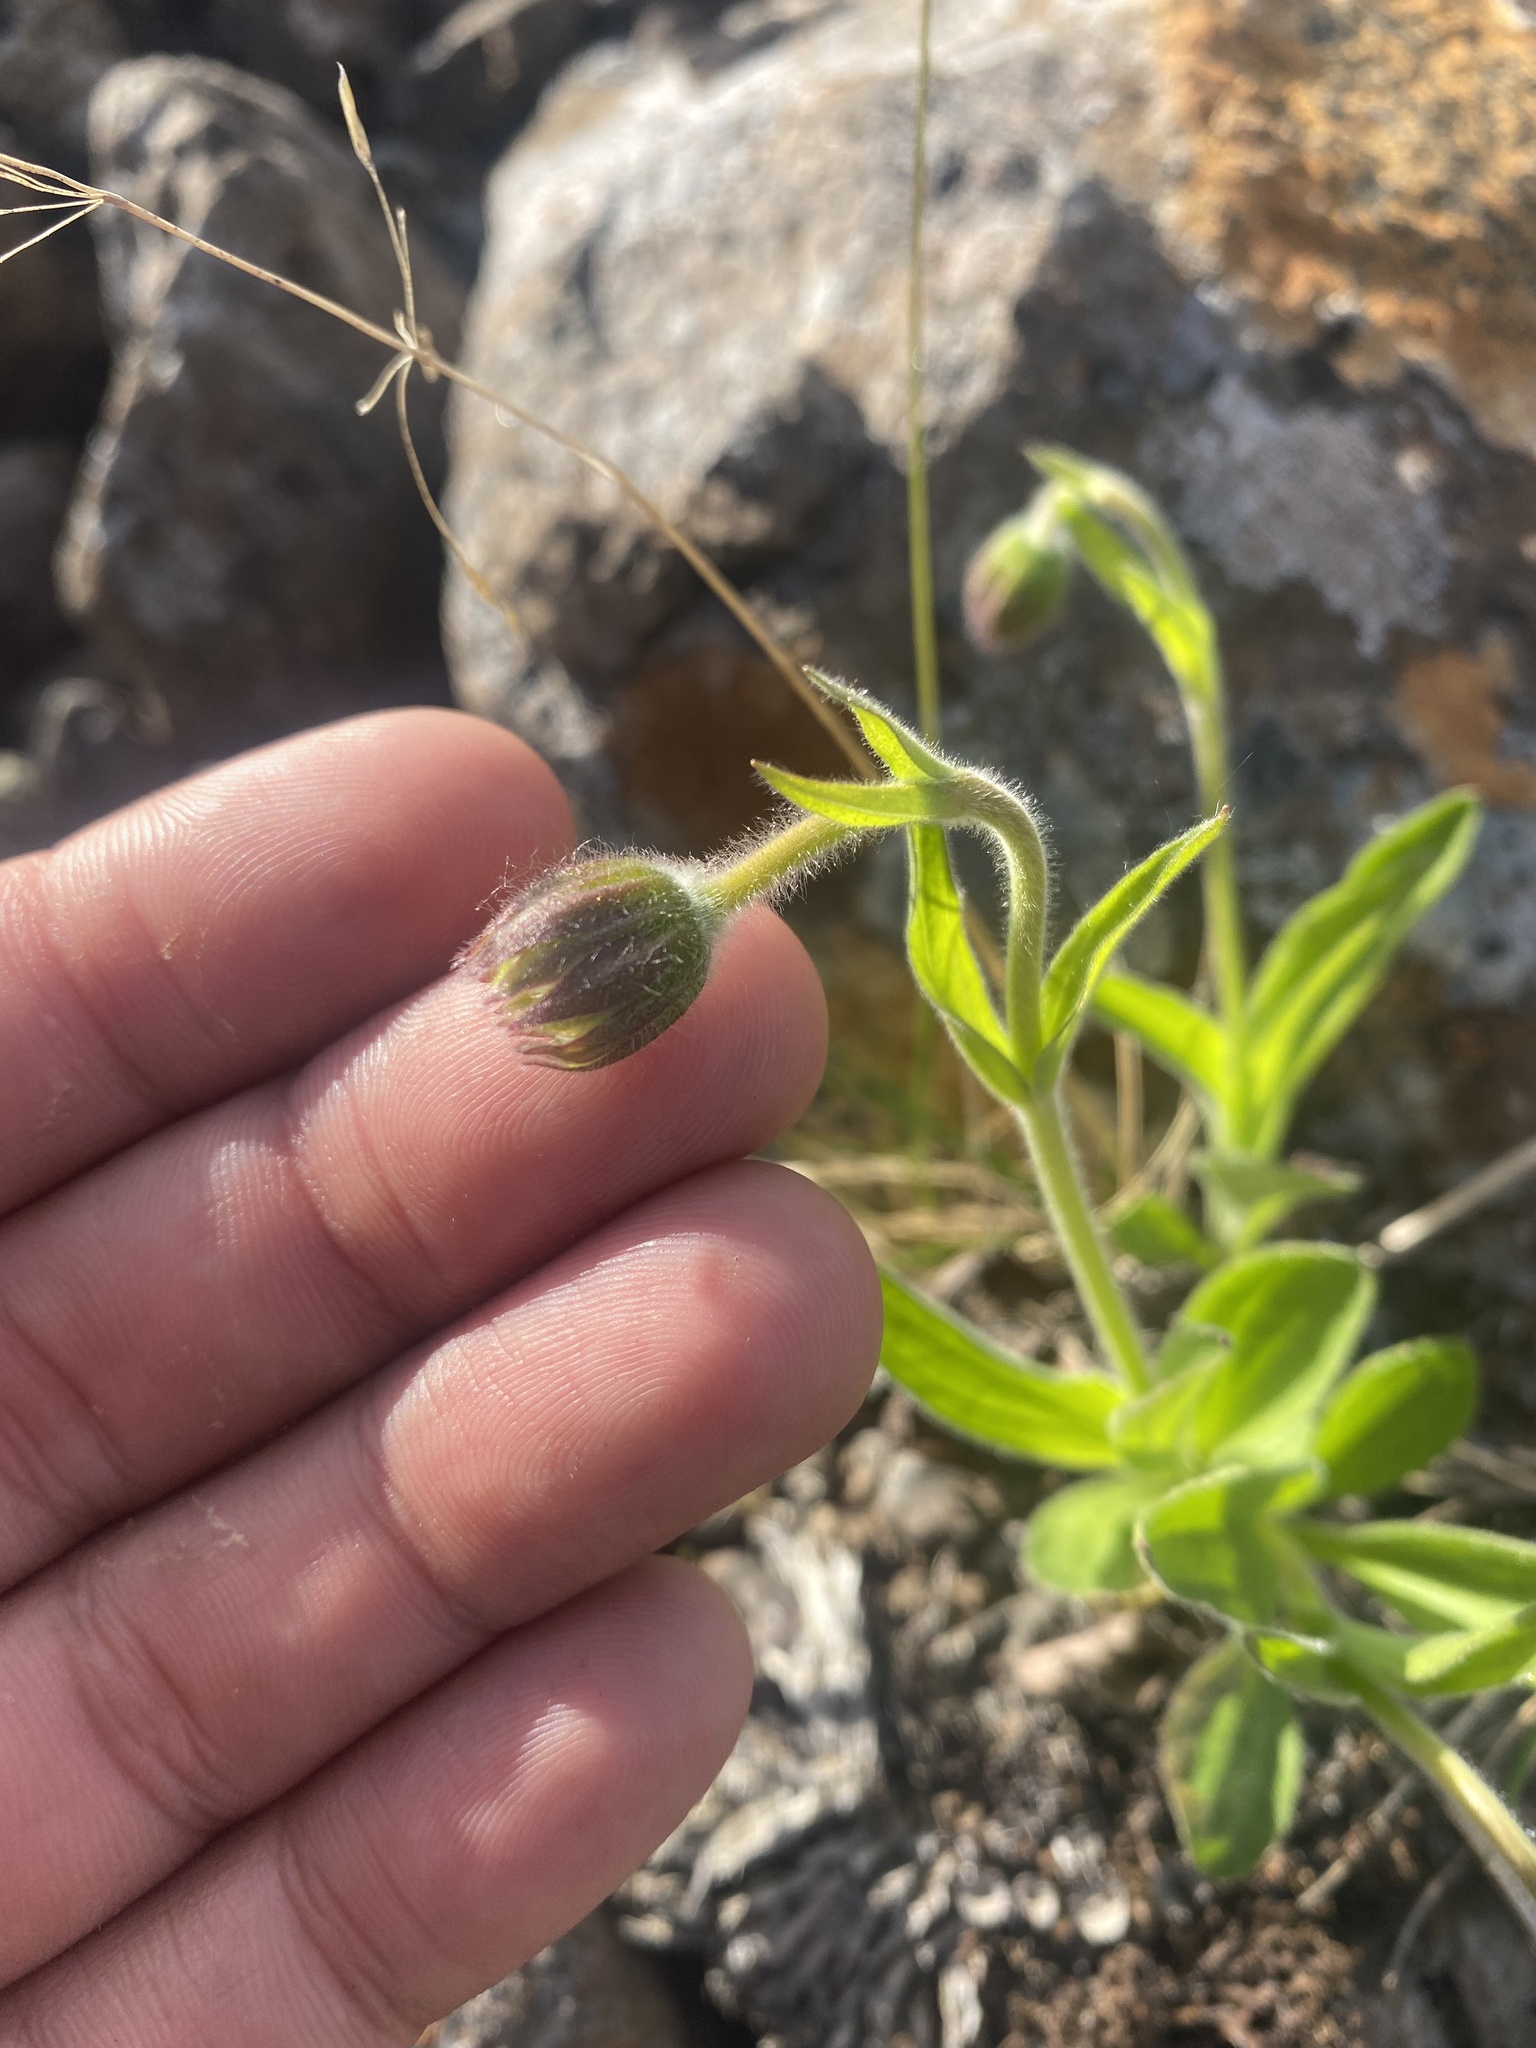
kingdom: Plantae
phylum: Tracheophyta
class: Magnoliopsida
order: Asterales
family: Asteraceae
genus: Arnica
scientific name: Arnica angustifolia
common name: Arctic arnica
